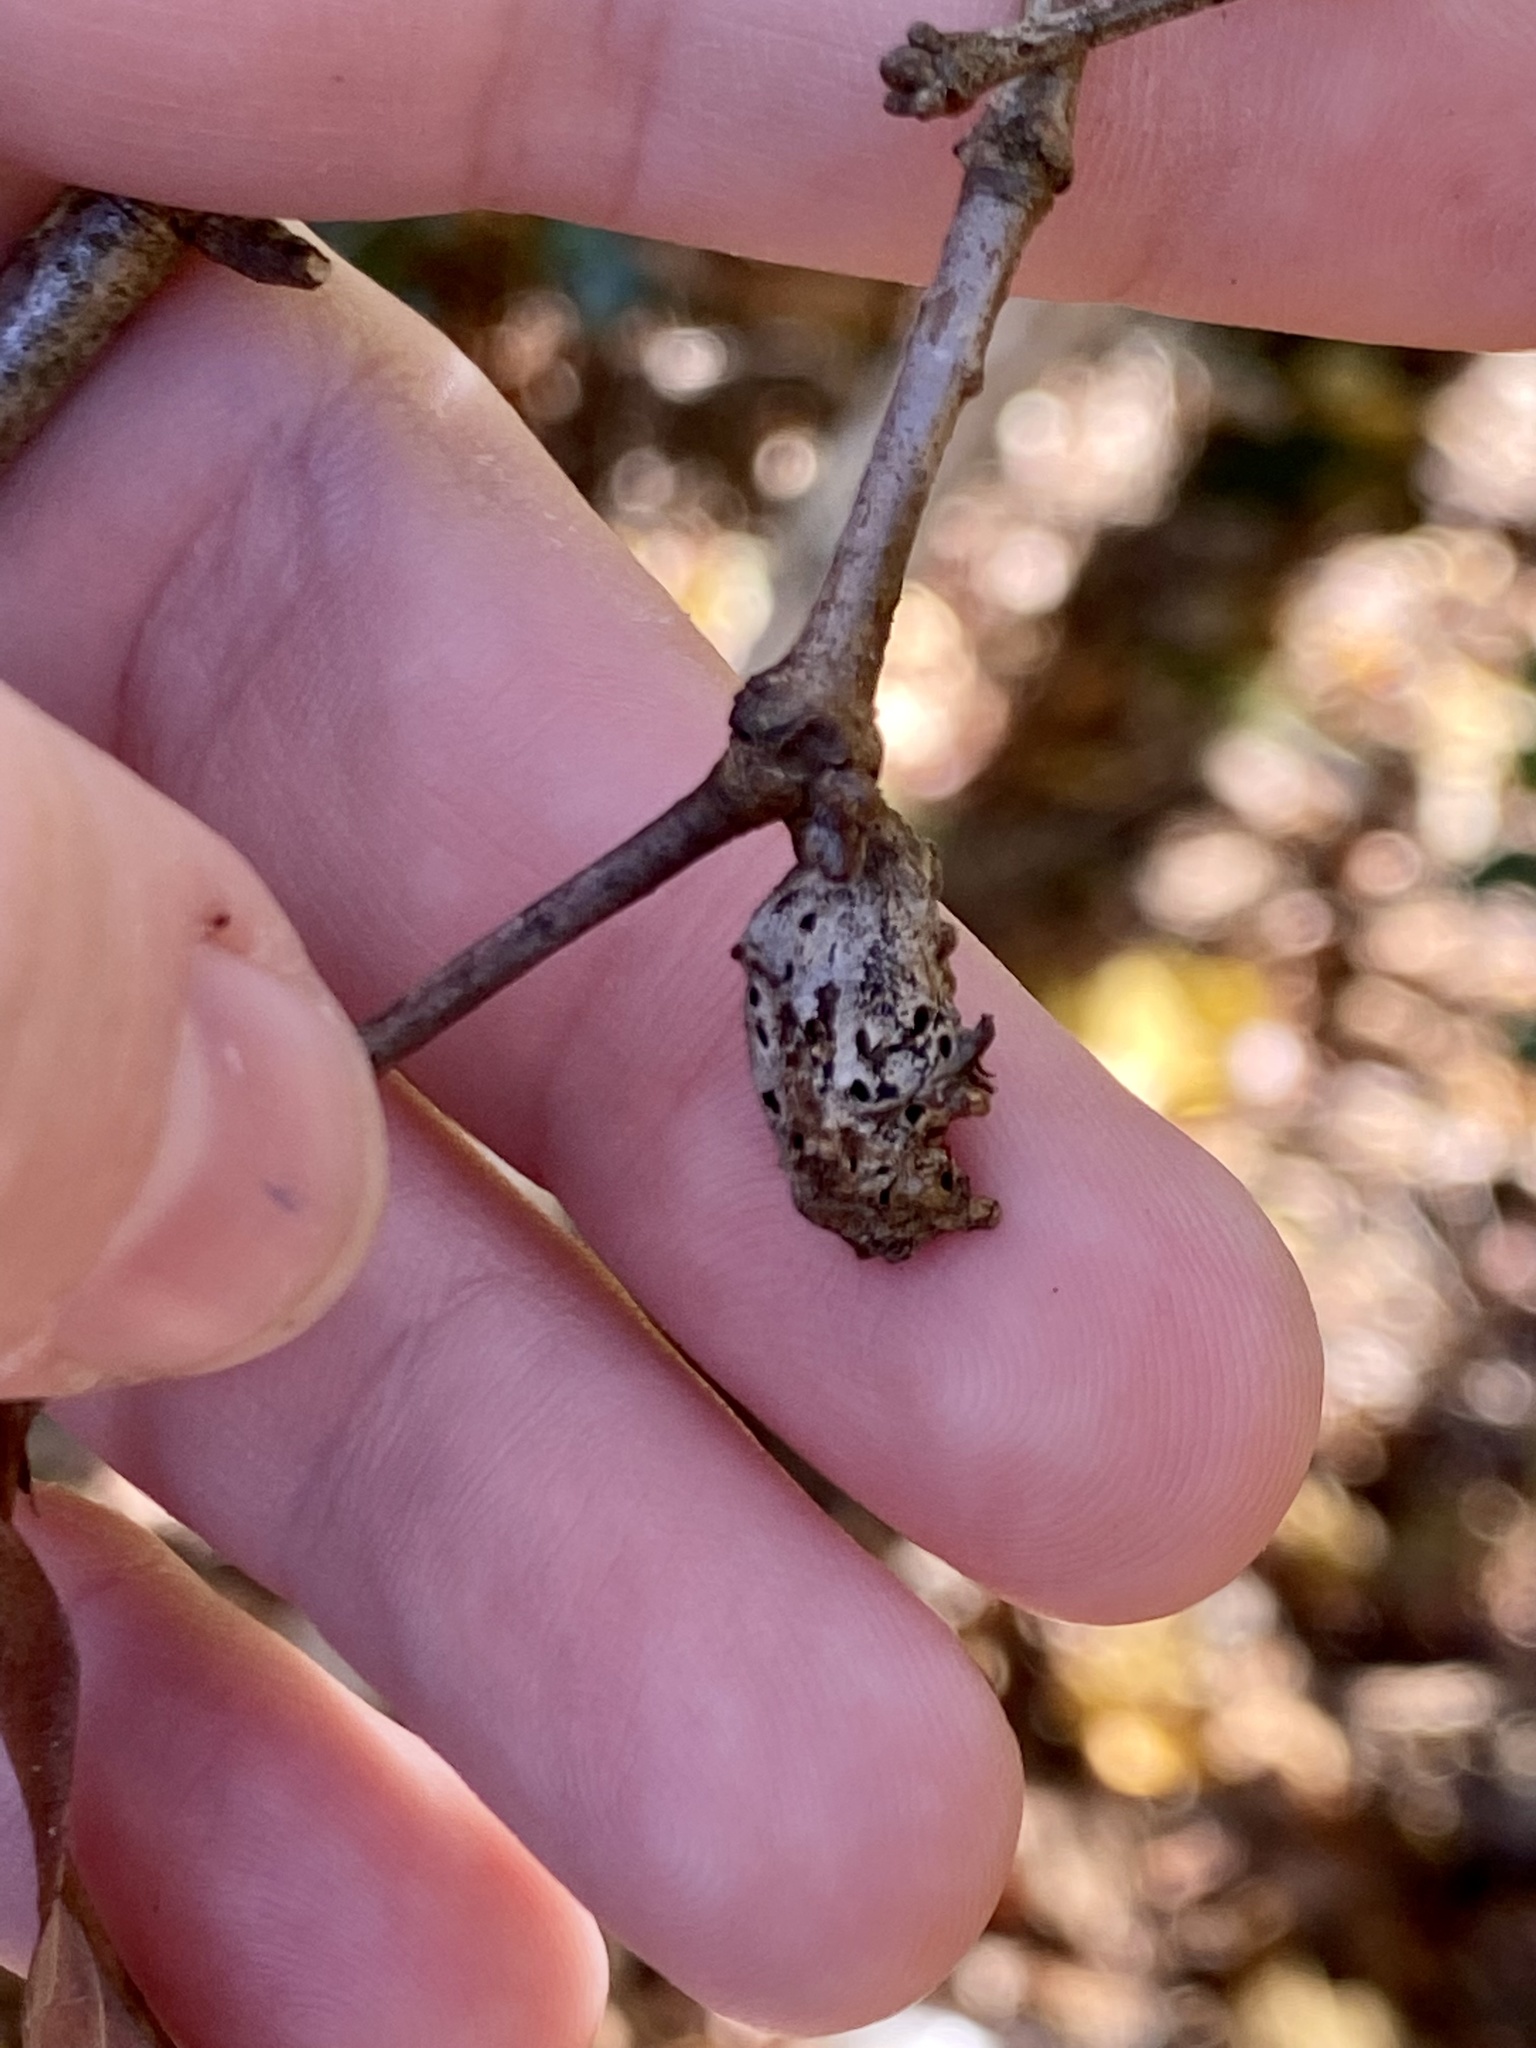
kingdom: Animalia
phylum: Arthropoda
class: Insecta
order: Hymenoptera
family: Cynipidae
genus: Neuroterus
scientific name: Neuroterus quercusbaccarum
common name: Common spangle gall
